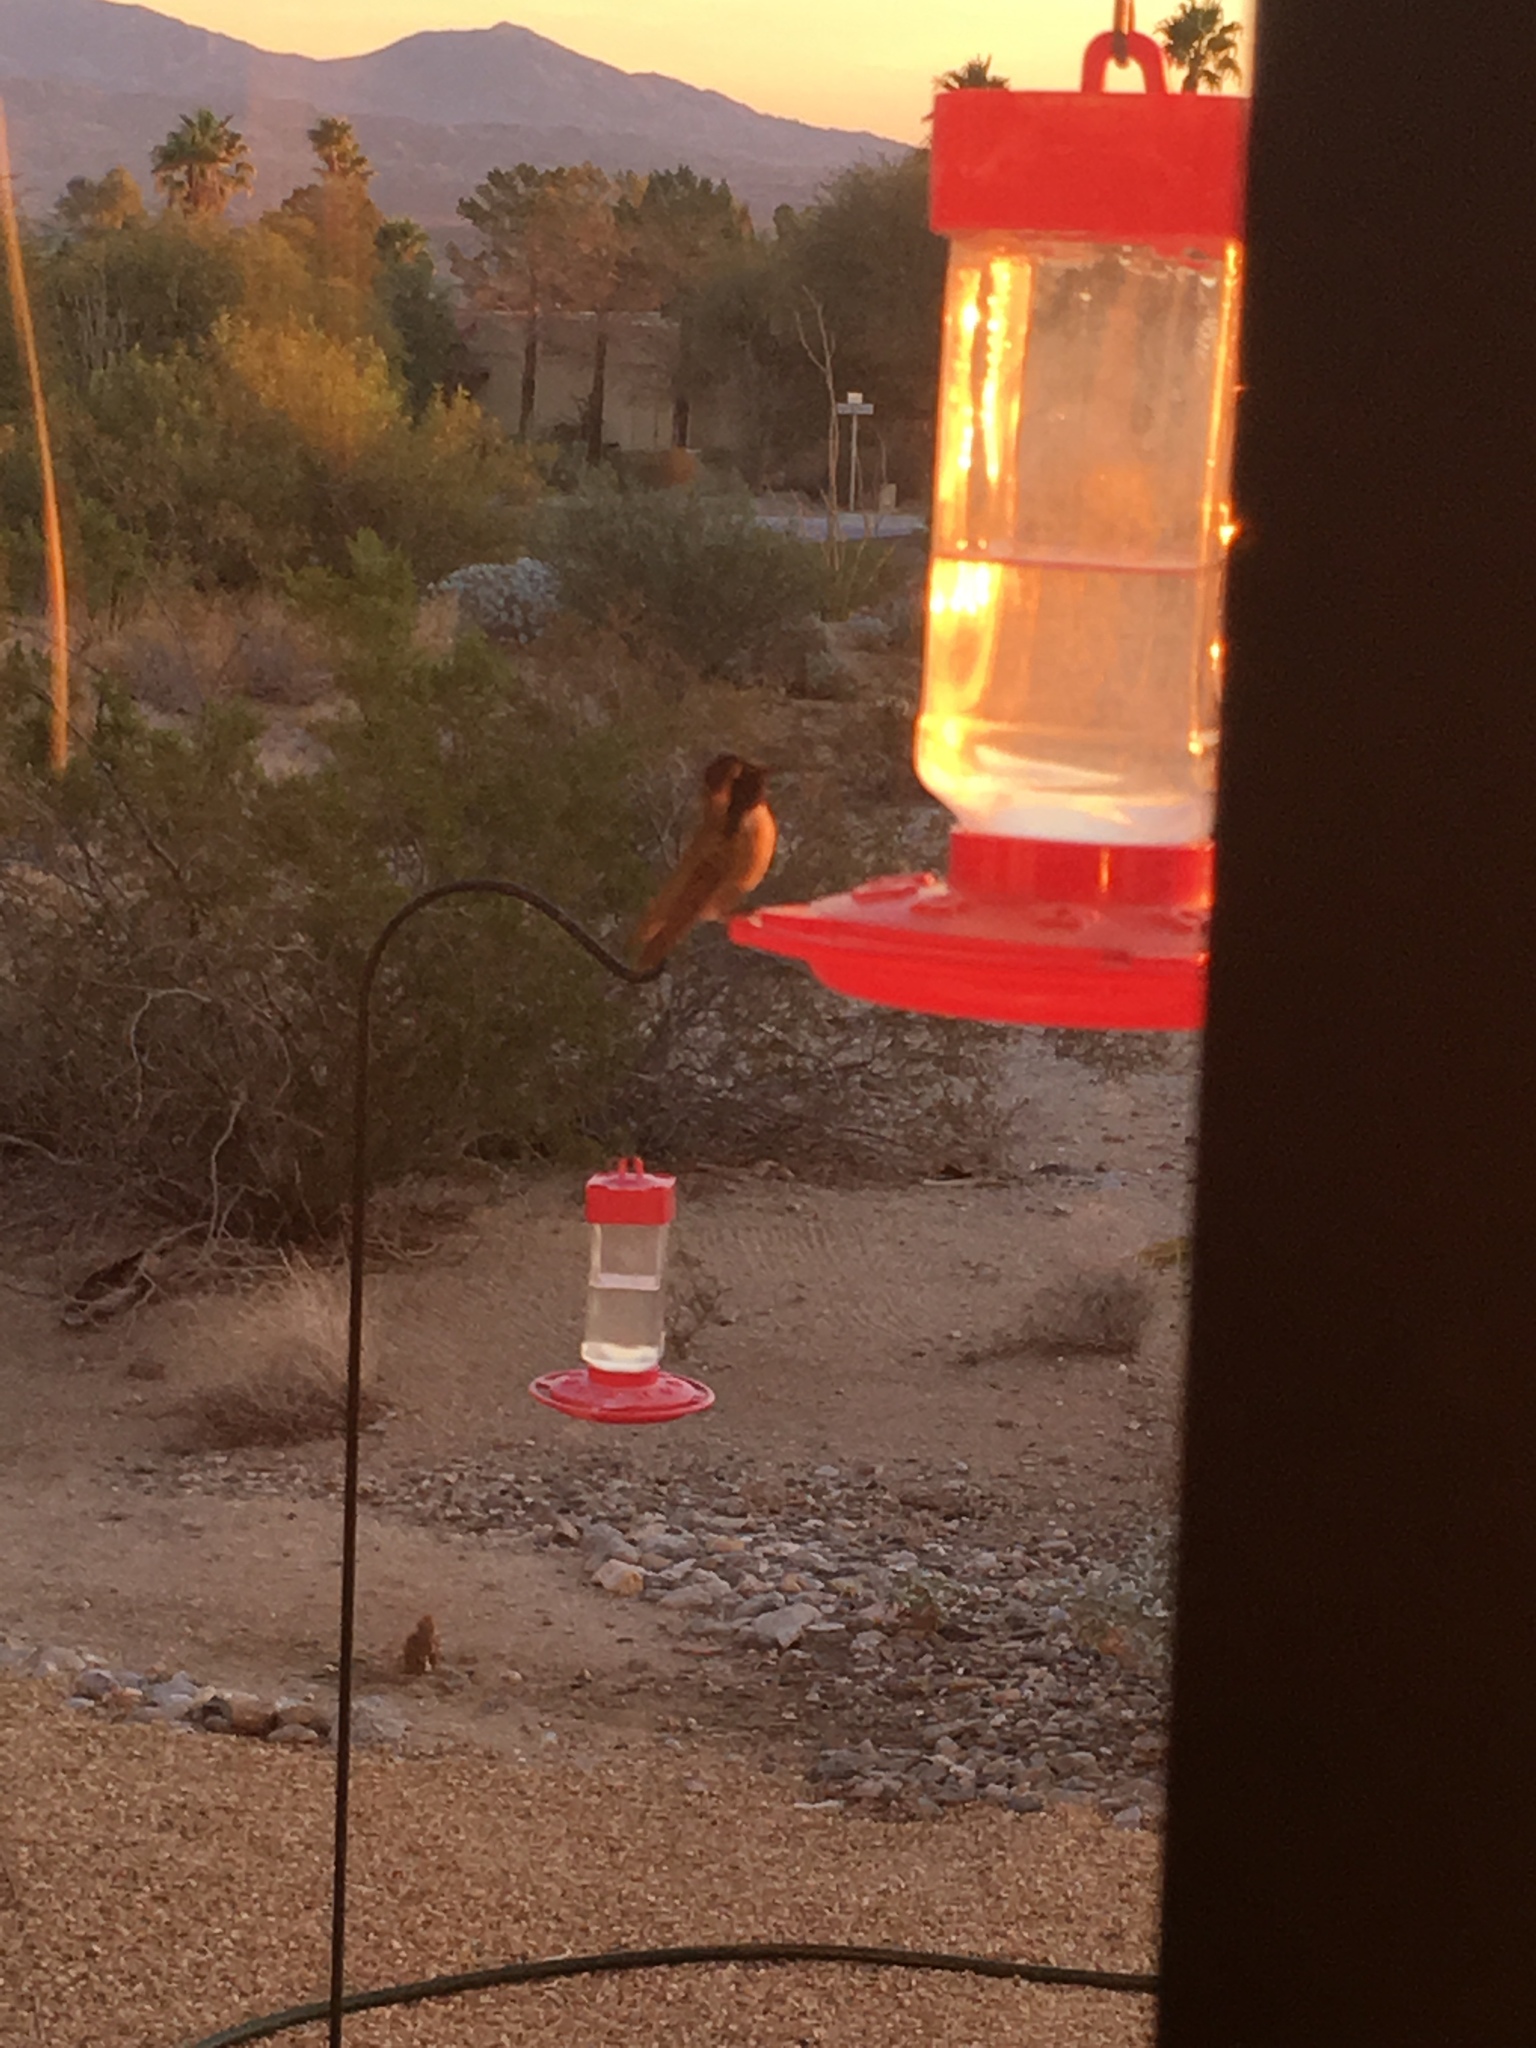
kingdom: Animalia
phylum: Chordata
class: Aves
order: Apodiformes
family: Trochilidae
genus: Calypte
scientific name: Calypte costae
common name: Costa's hummingbird
